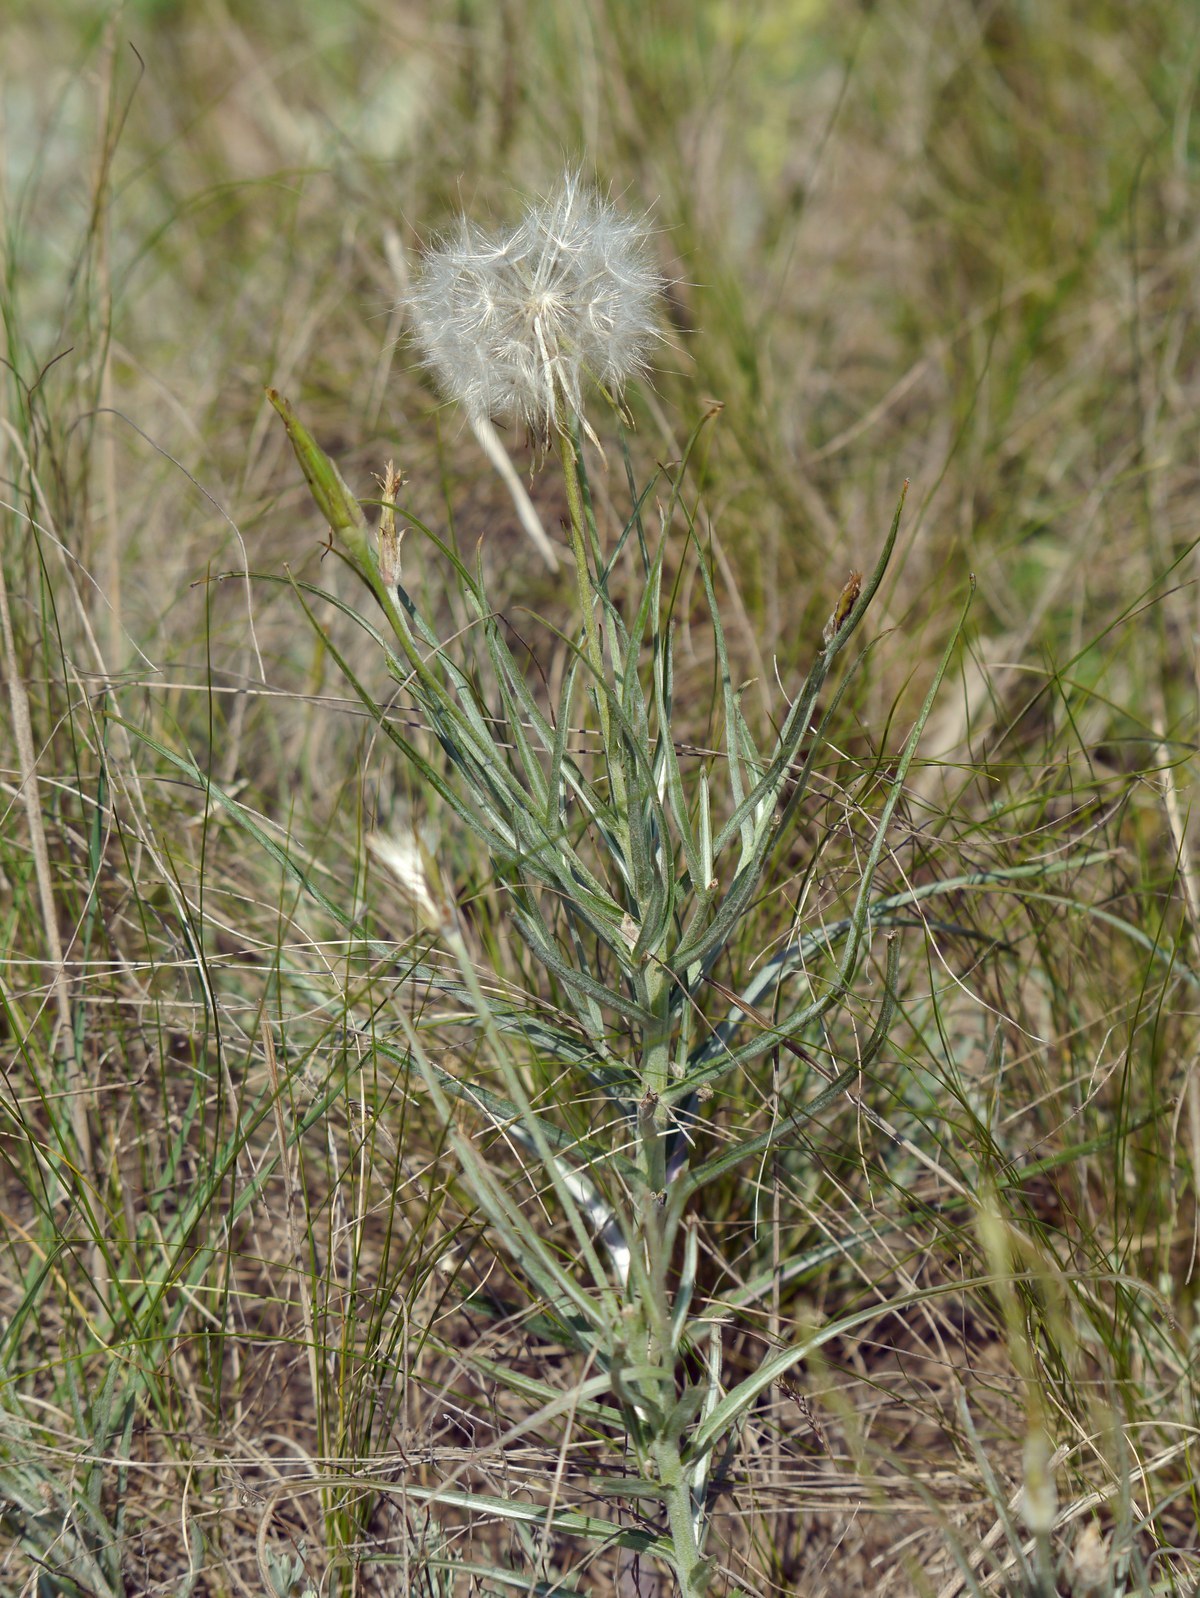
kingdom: Plantae
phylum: Tracheophyta
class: Magnoliopsida
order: Asterales
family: Asteraceae
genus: Candollea
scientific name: Candollea mollis
